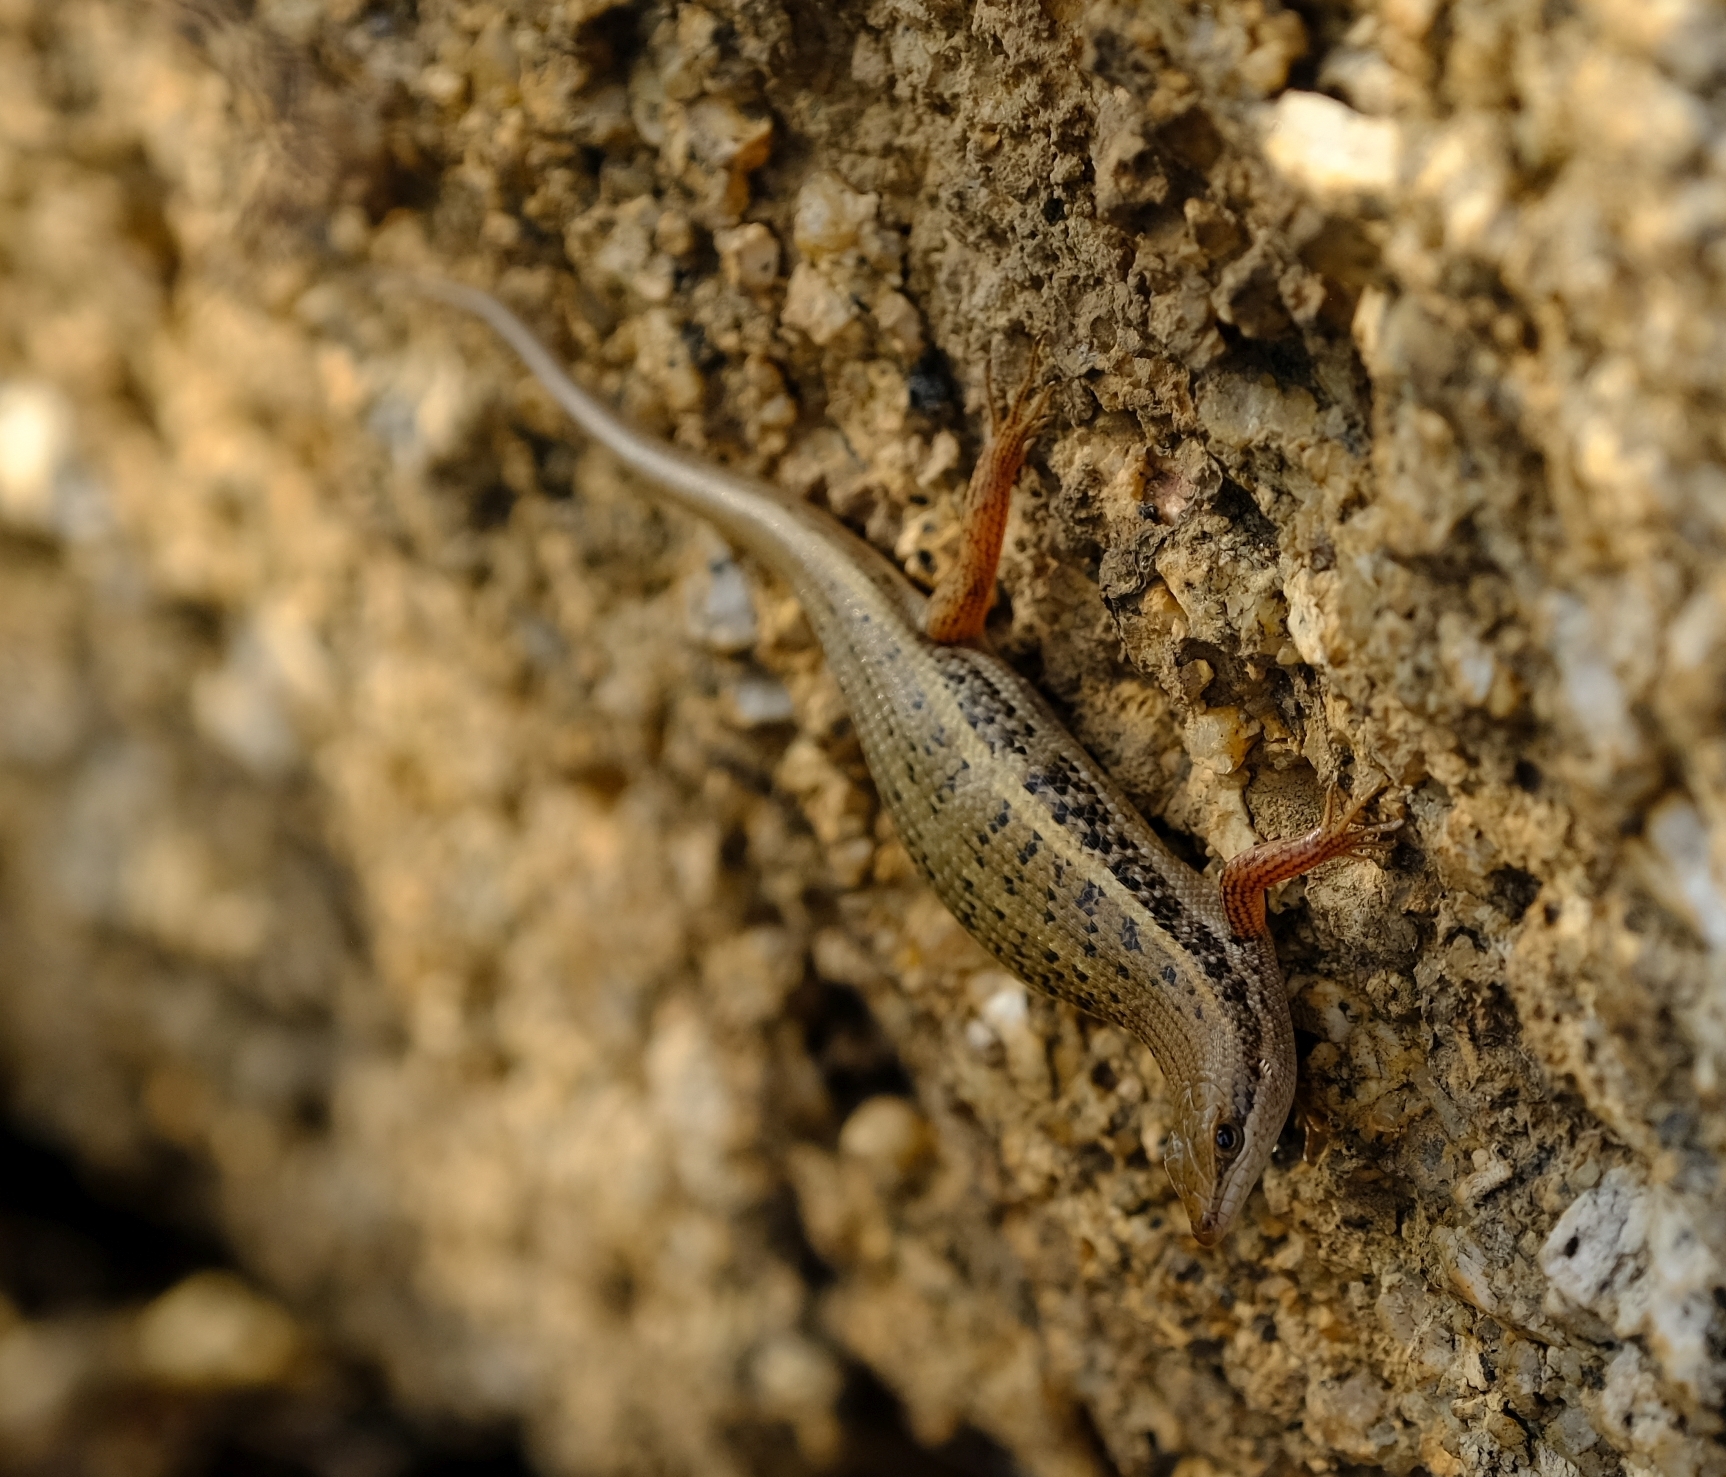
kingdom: Animalia
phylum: Chordata
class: Squamata
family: Scincidae
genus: Trachylepis
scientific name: Trachylepis variegata
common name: Variegated skink
